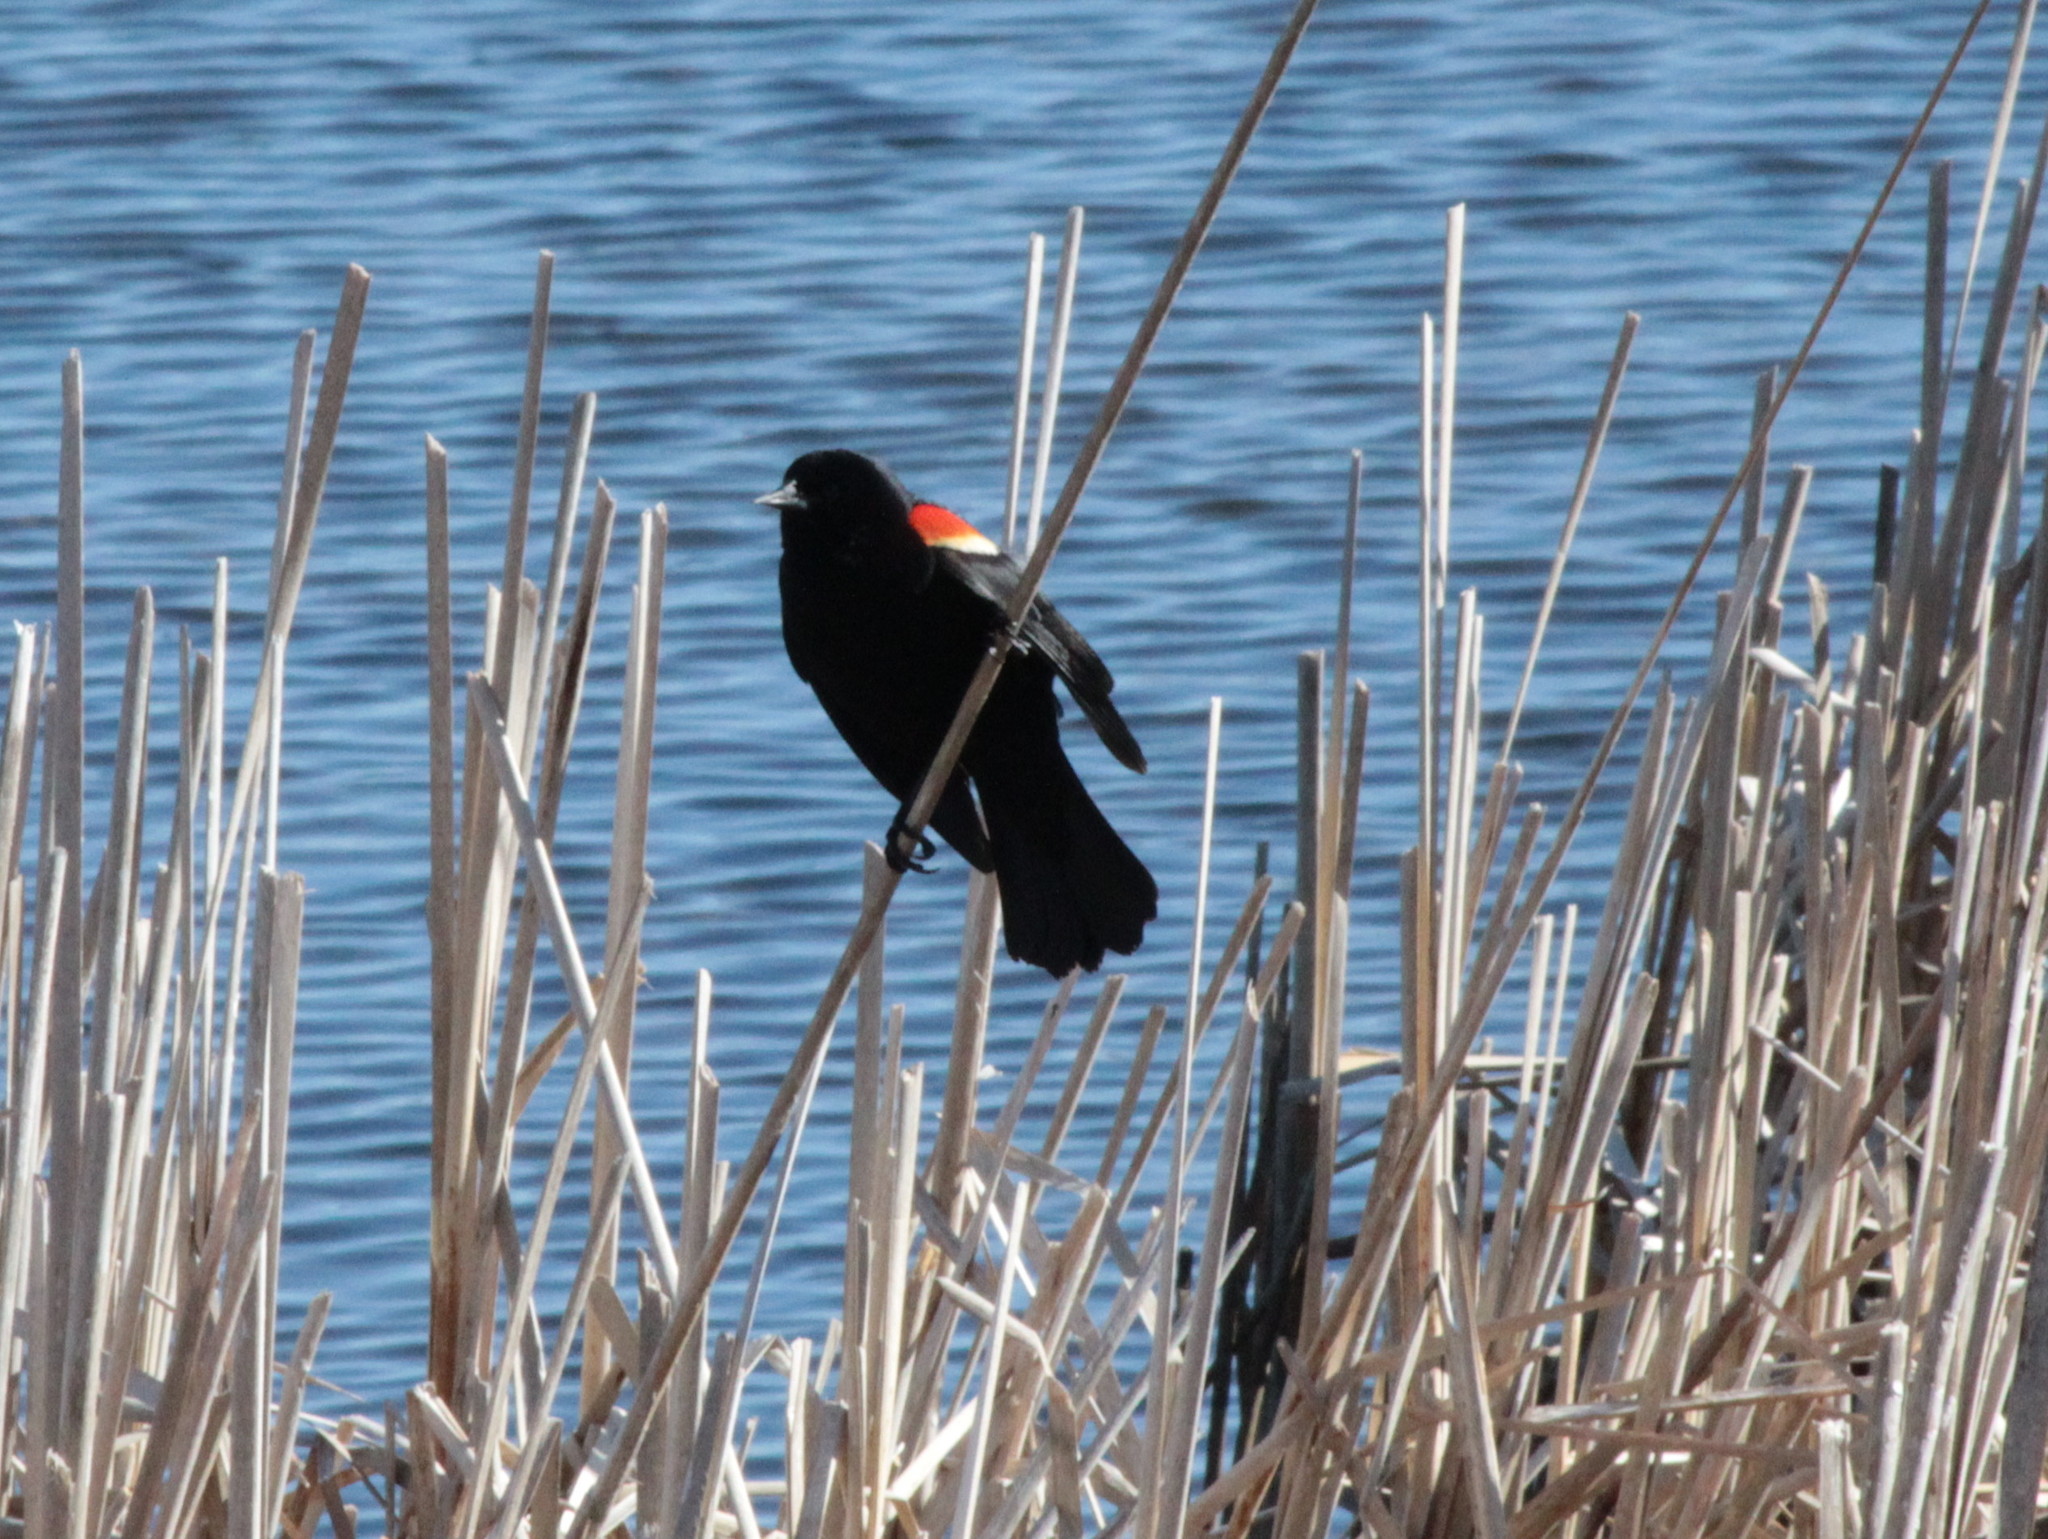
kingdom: Animalia
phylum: Chordata
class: Aves
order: Passeriformes
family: Icteridae
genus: Agelaius
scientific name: Agelaius phoeniceus
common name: Red-winged blackbird
